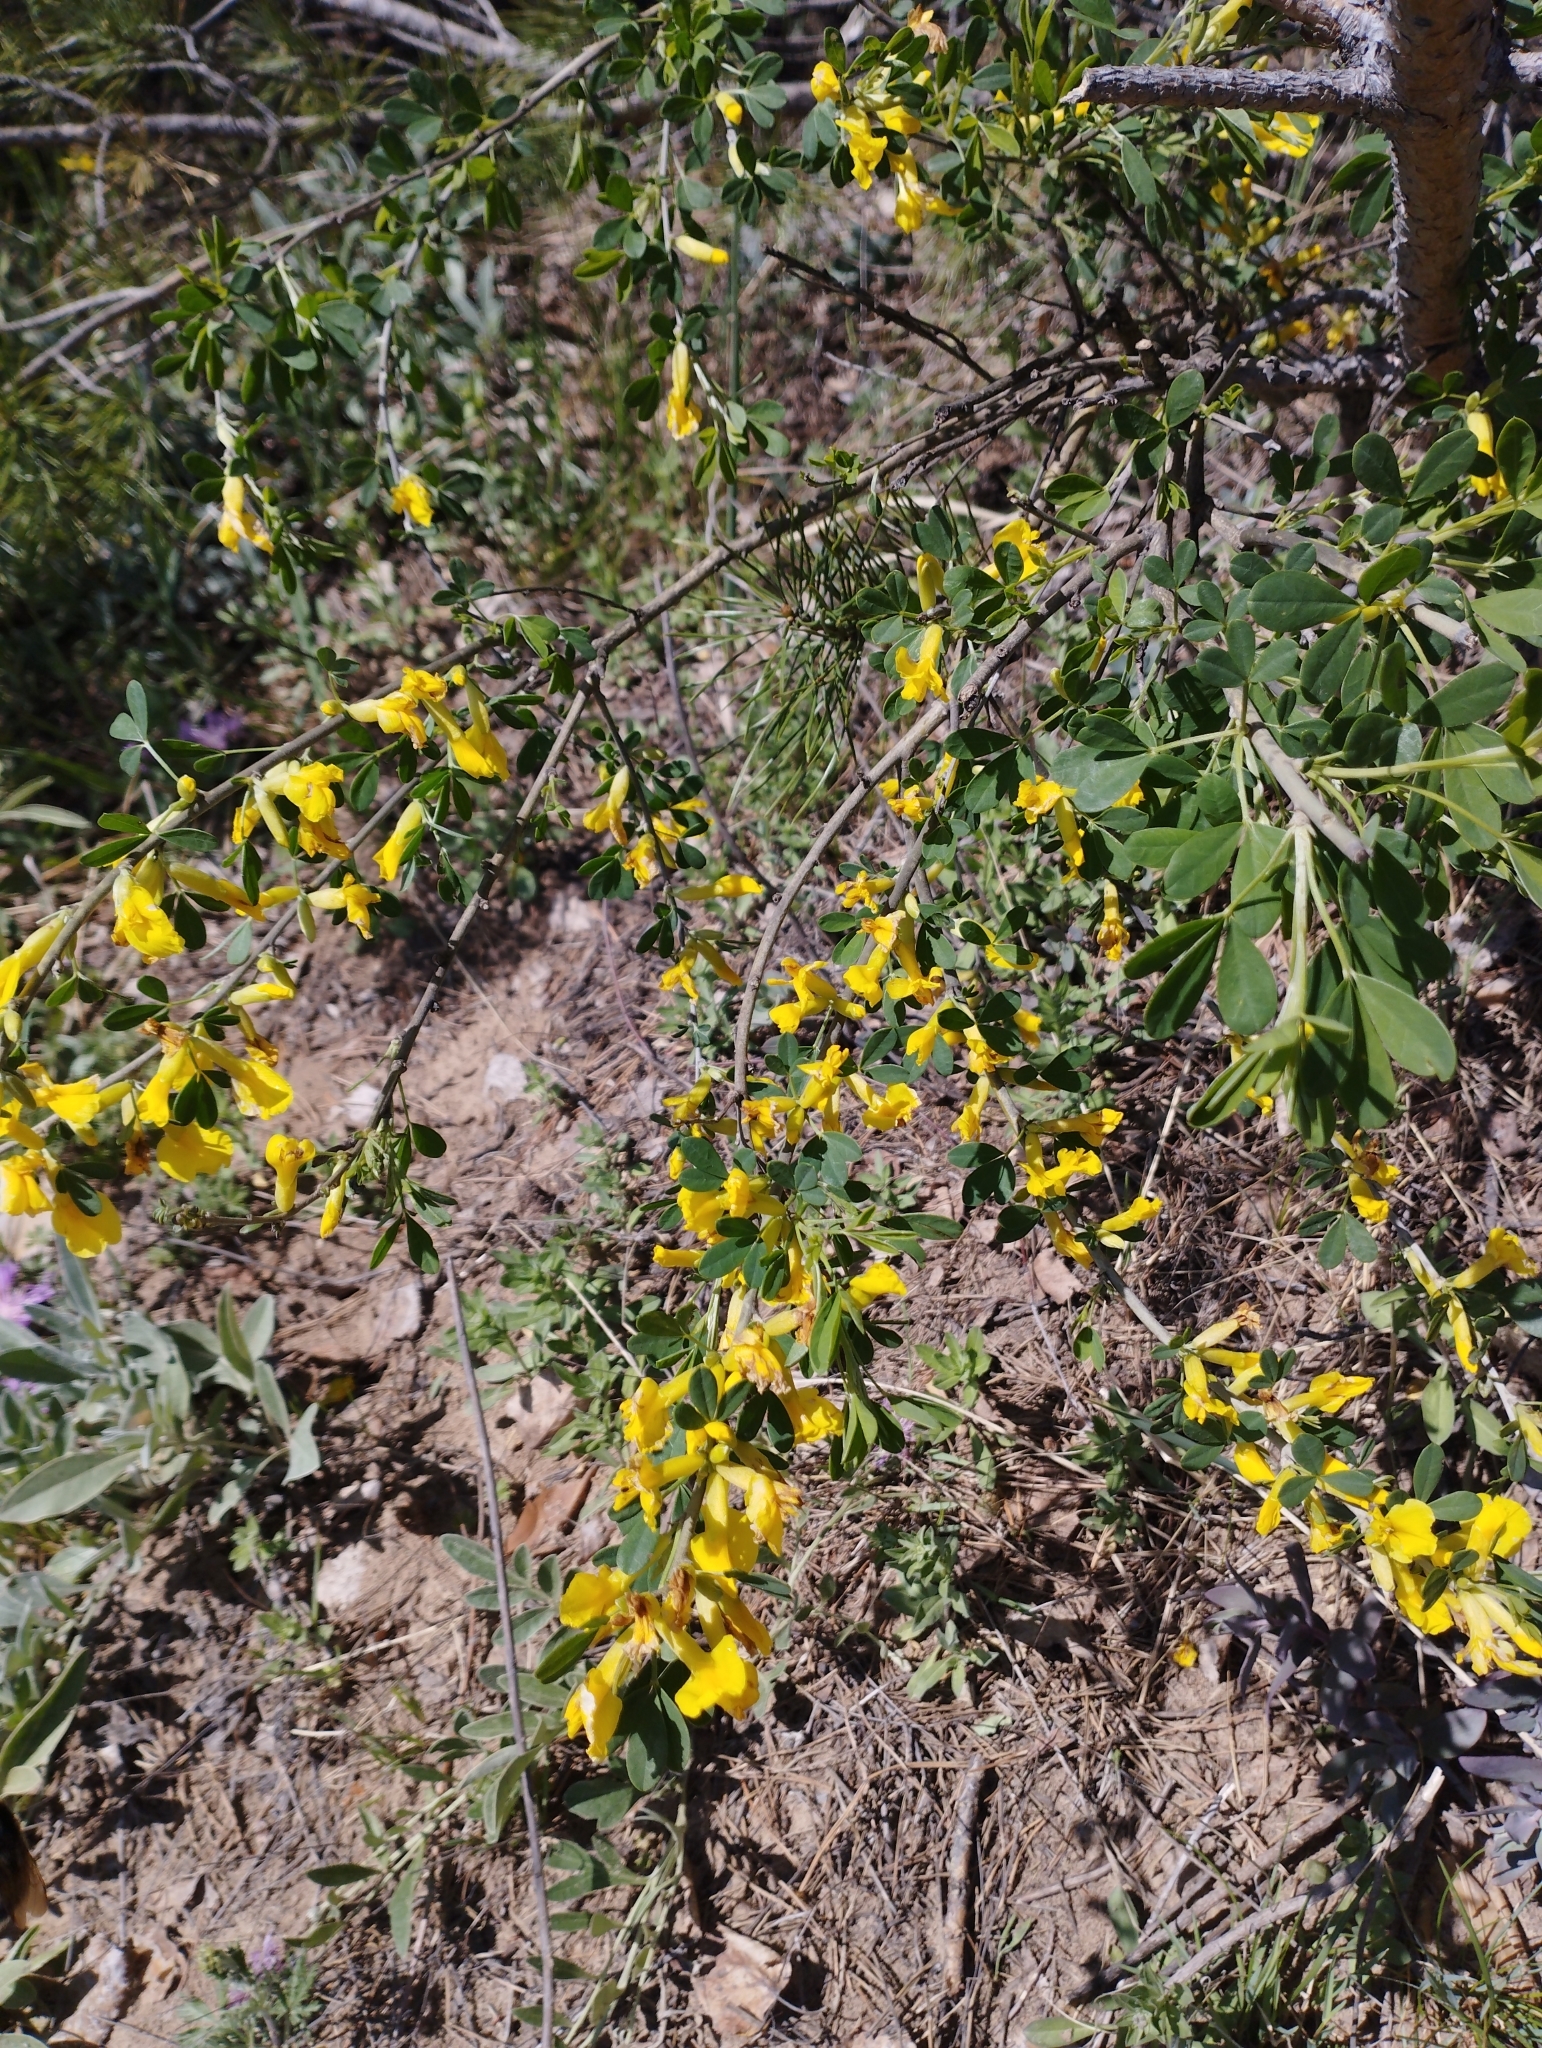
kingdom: Plantae
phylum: Tracheophyta
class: Magnoliopsida
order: Fabales
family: Fabaceae
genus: Chamaecytisus
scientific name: Chamaecytisus ruthenicus
